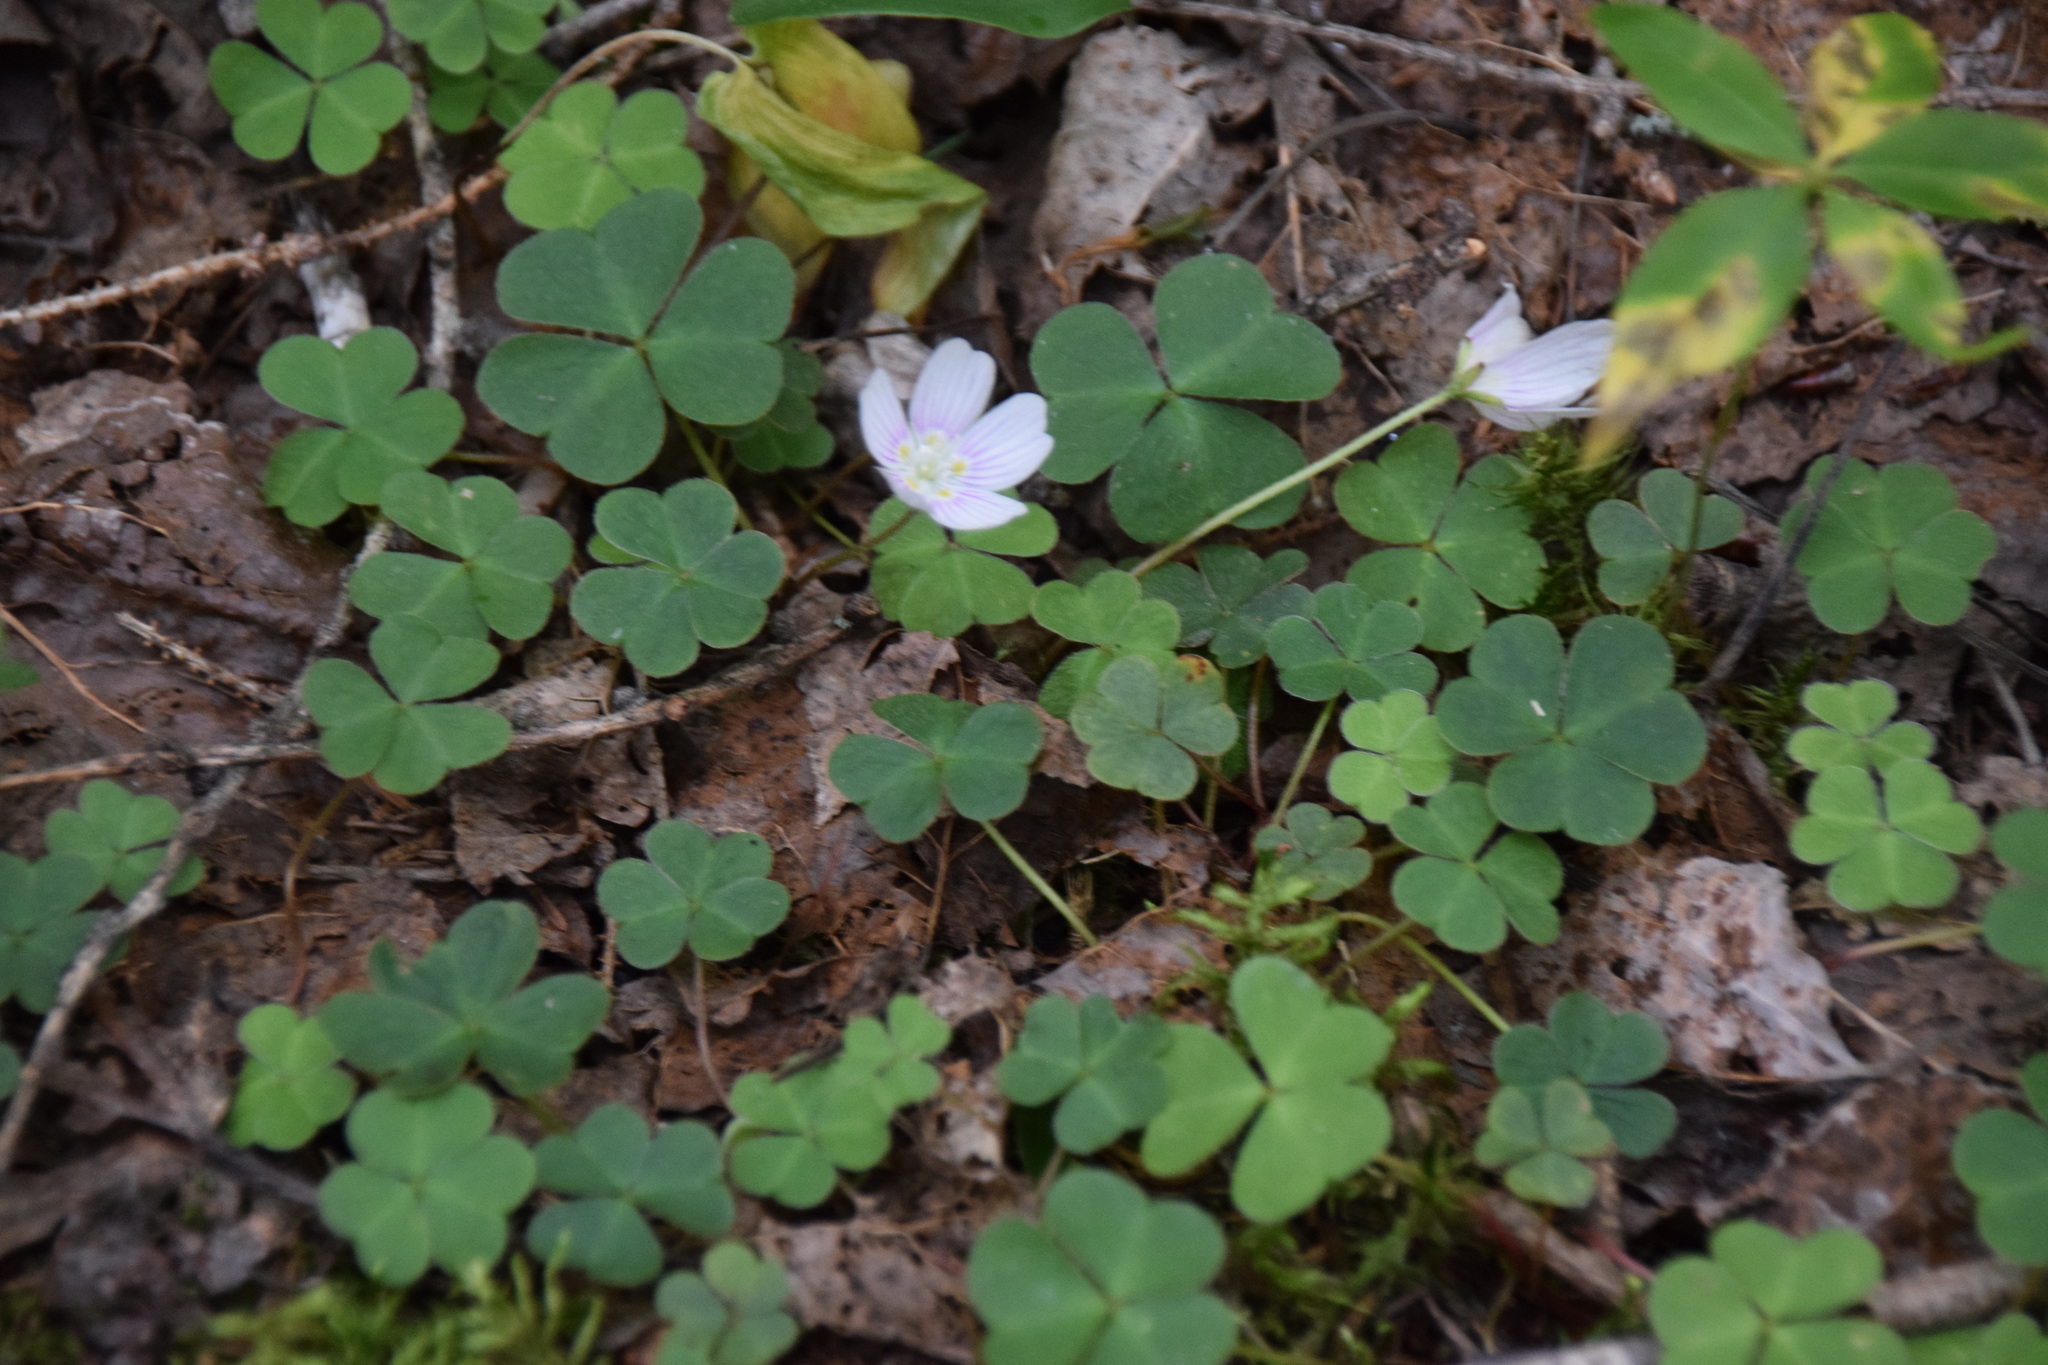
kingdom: Plantae
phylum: Tracheophyta
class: Magnoliopsida
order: Oxalidales
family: Oxalidaceae
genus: Oxalis
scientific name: Oxalis montana
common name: American wood-sorrel
